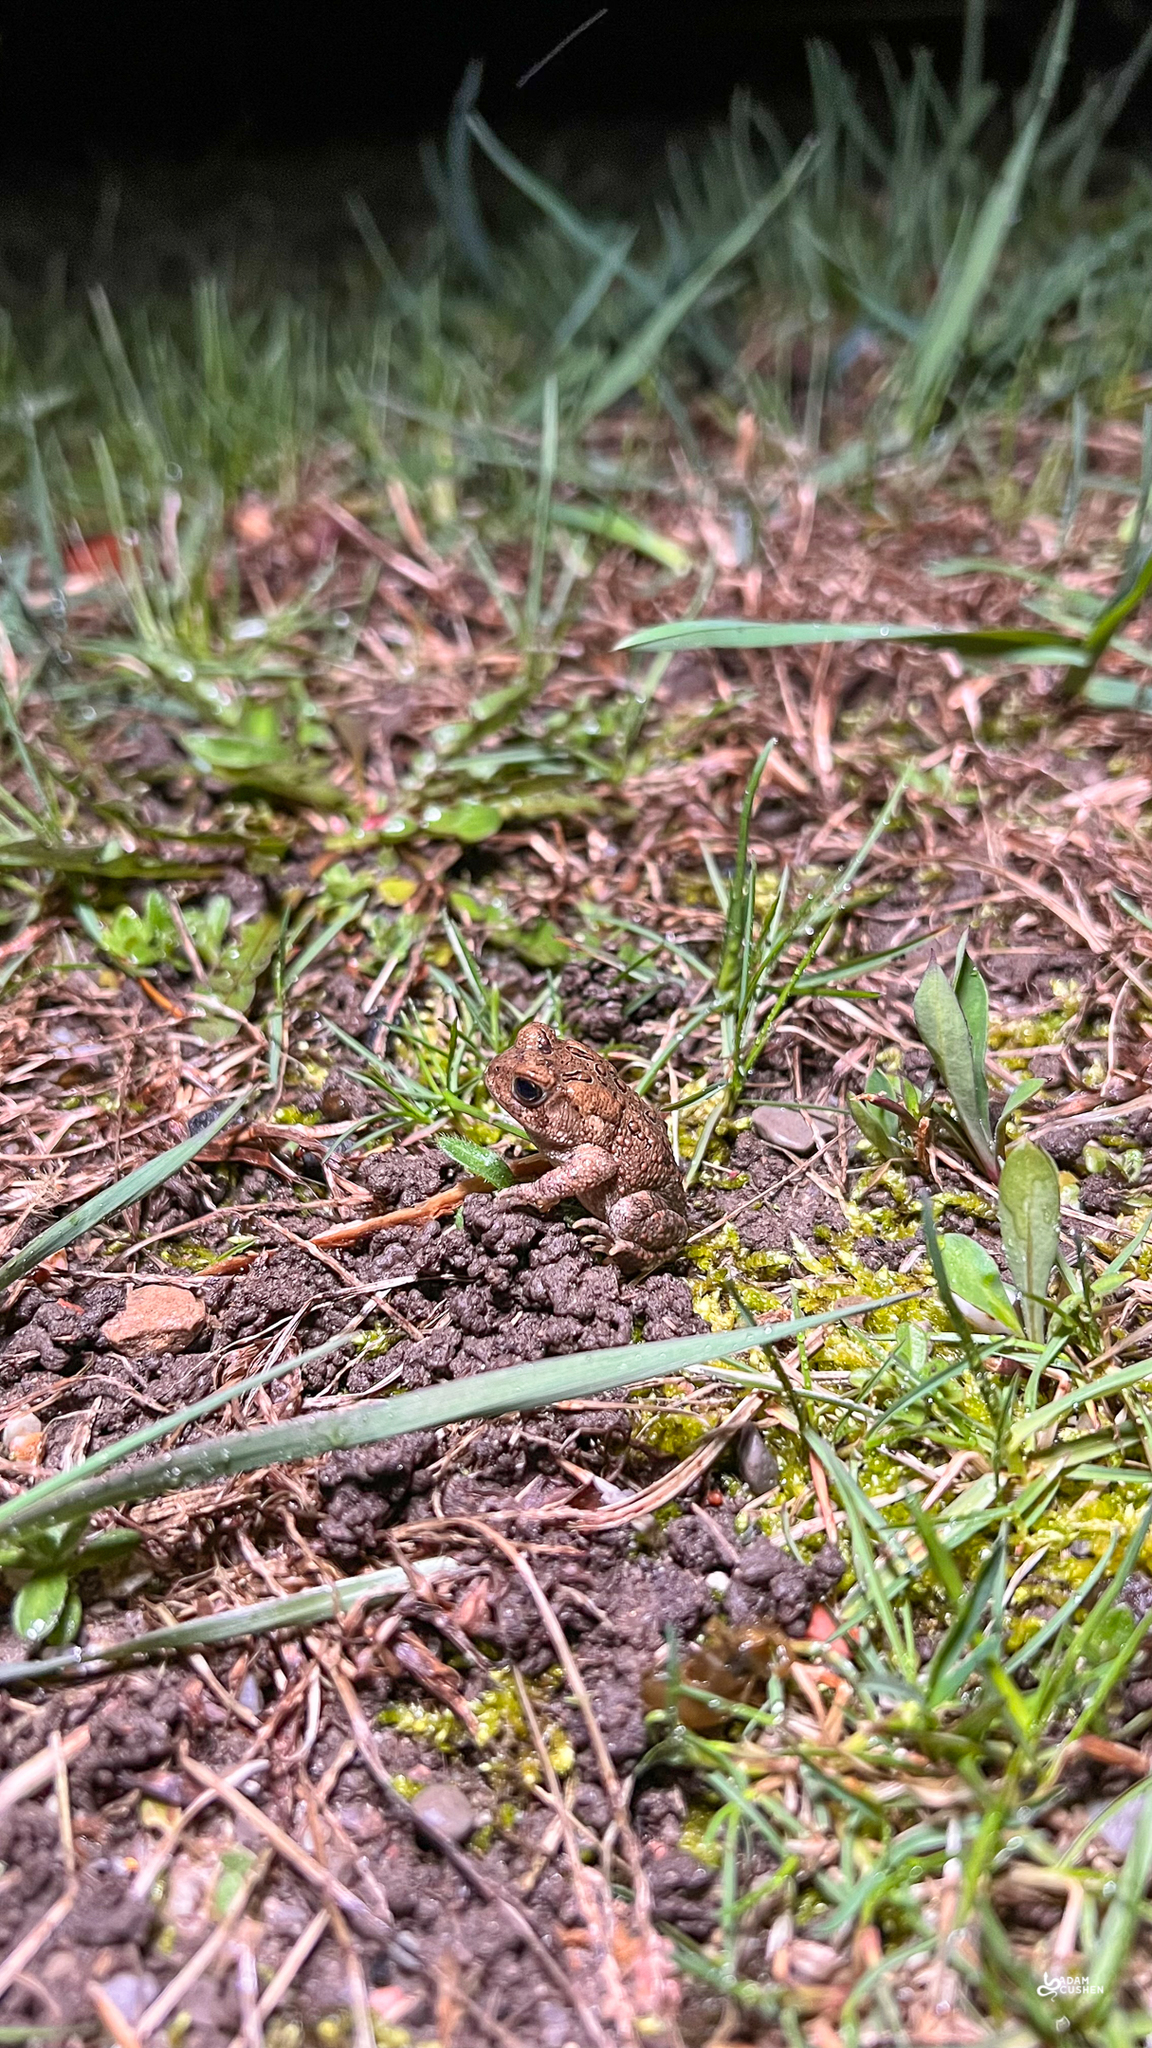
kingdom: Animalia
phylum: Chordata
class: Amphibia
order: Anura
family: Bufonidae
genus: Anaxyrus
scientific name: Anaxyrus americanus
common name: American toad
